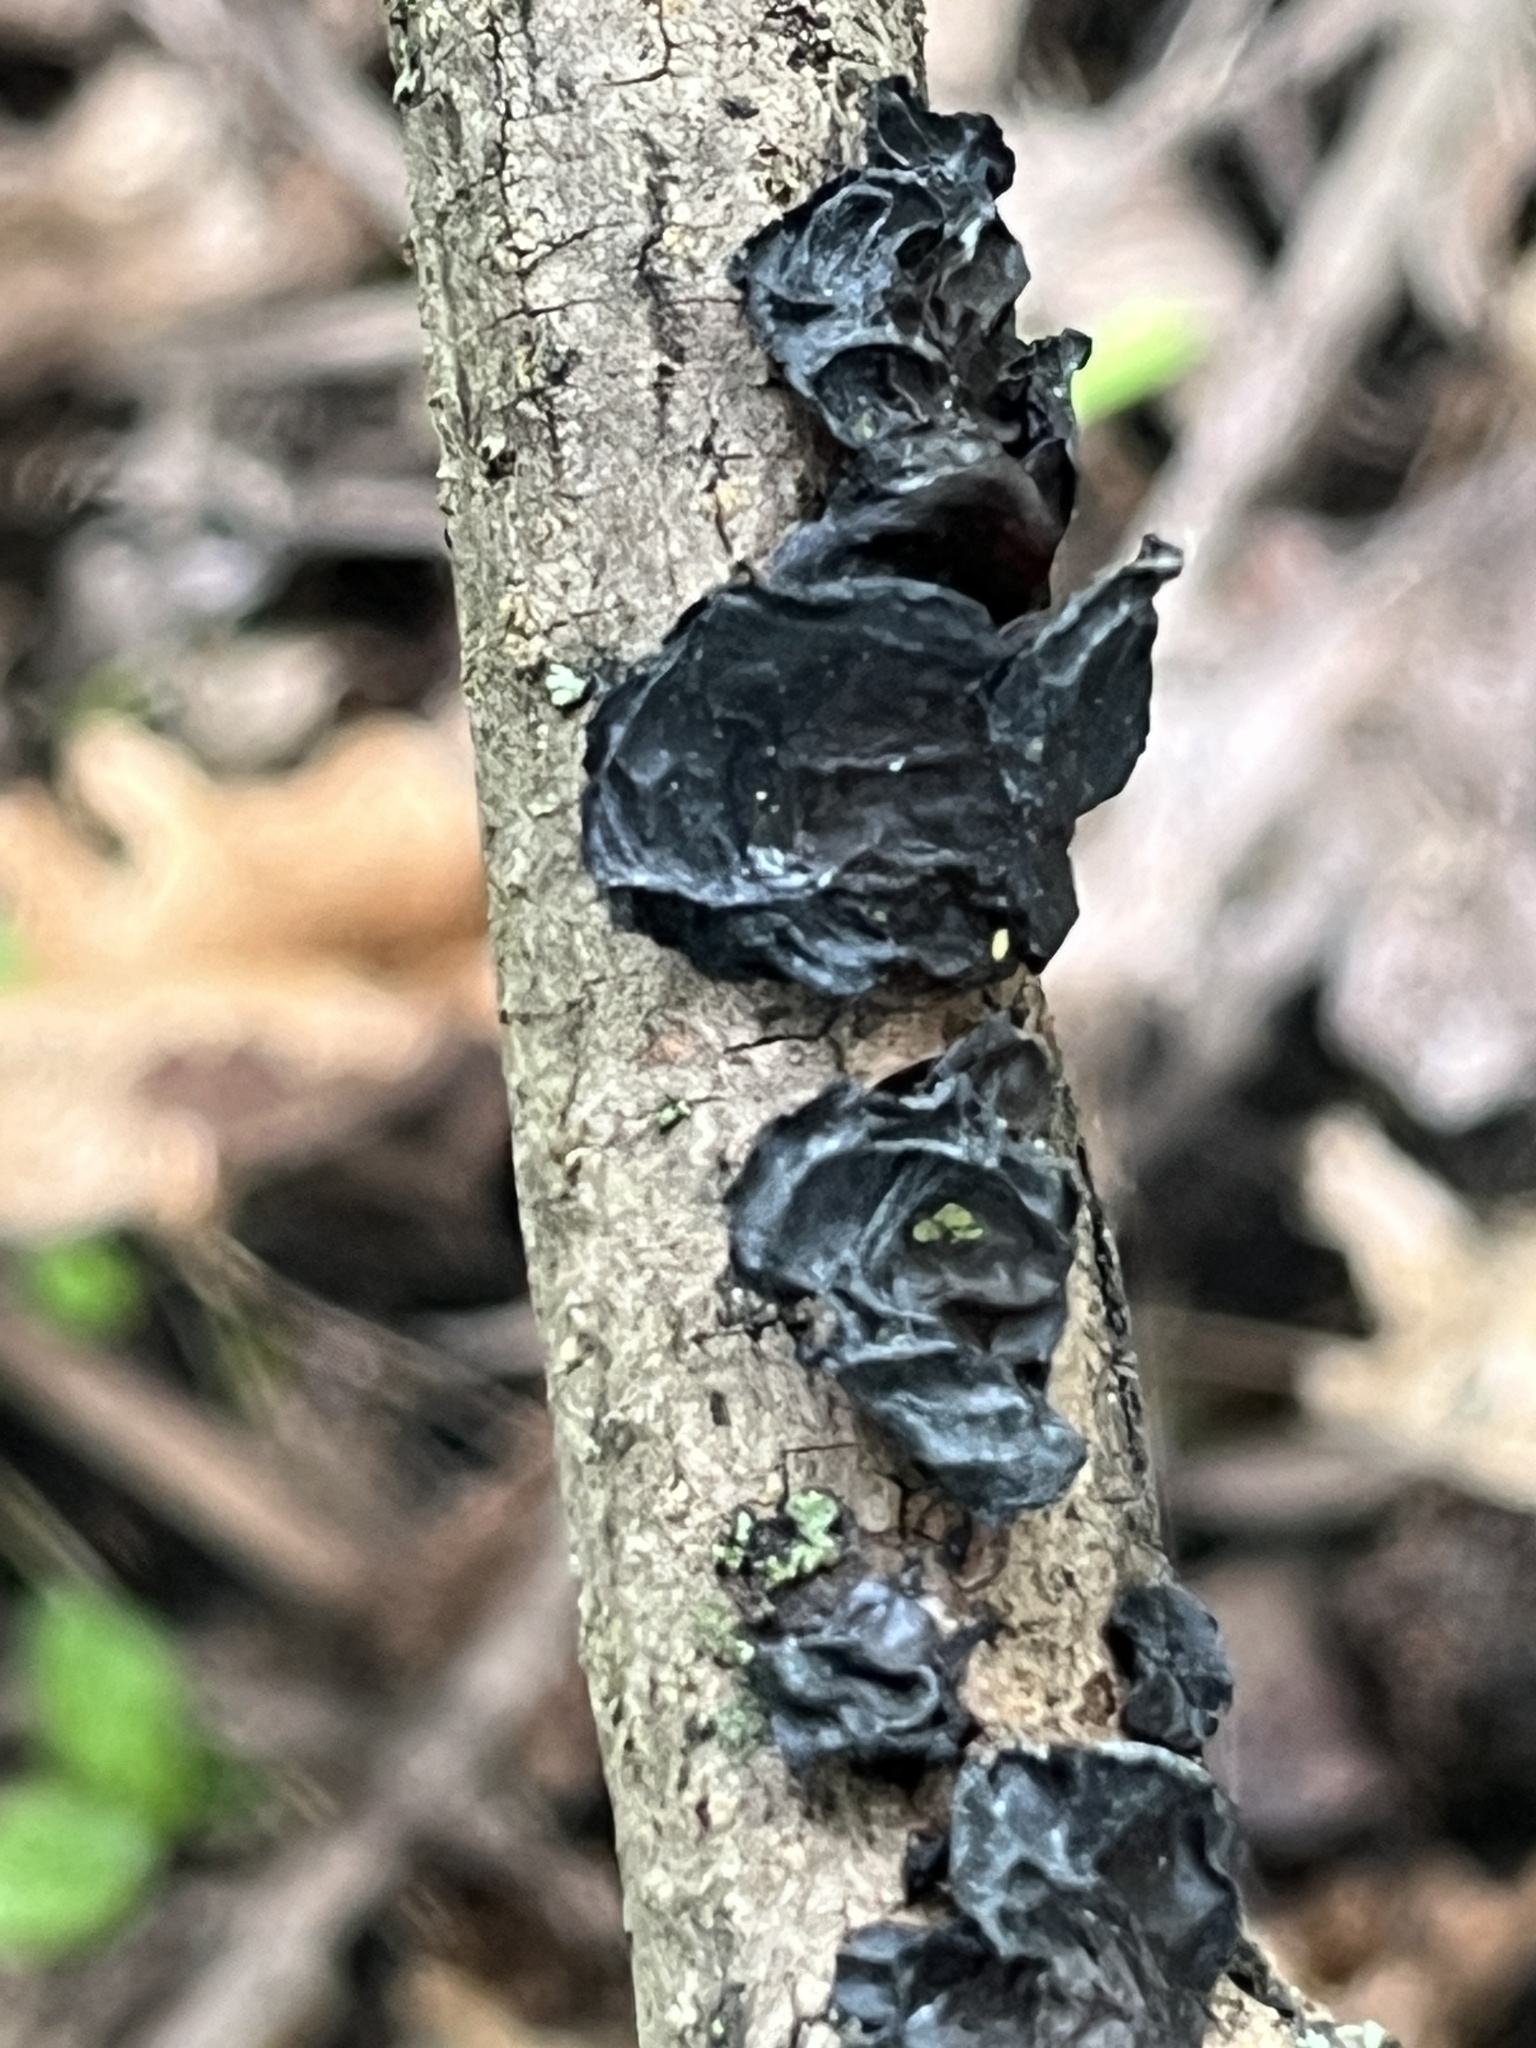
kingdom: Fungi
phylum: Basidiomycota
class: Agaricomycetes
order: Auriculariales
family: Auriculariaceae
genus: Exidia
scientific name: Exidia nigricans
